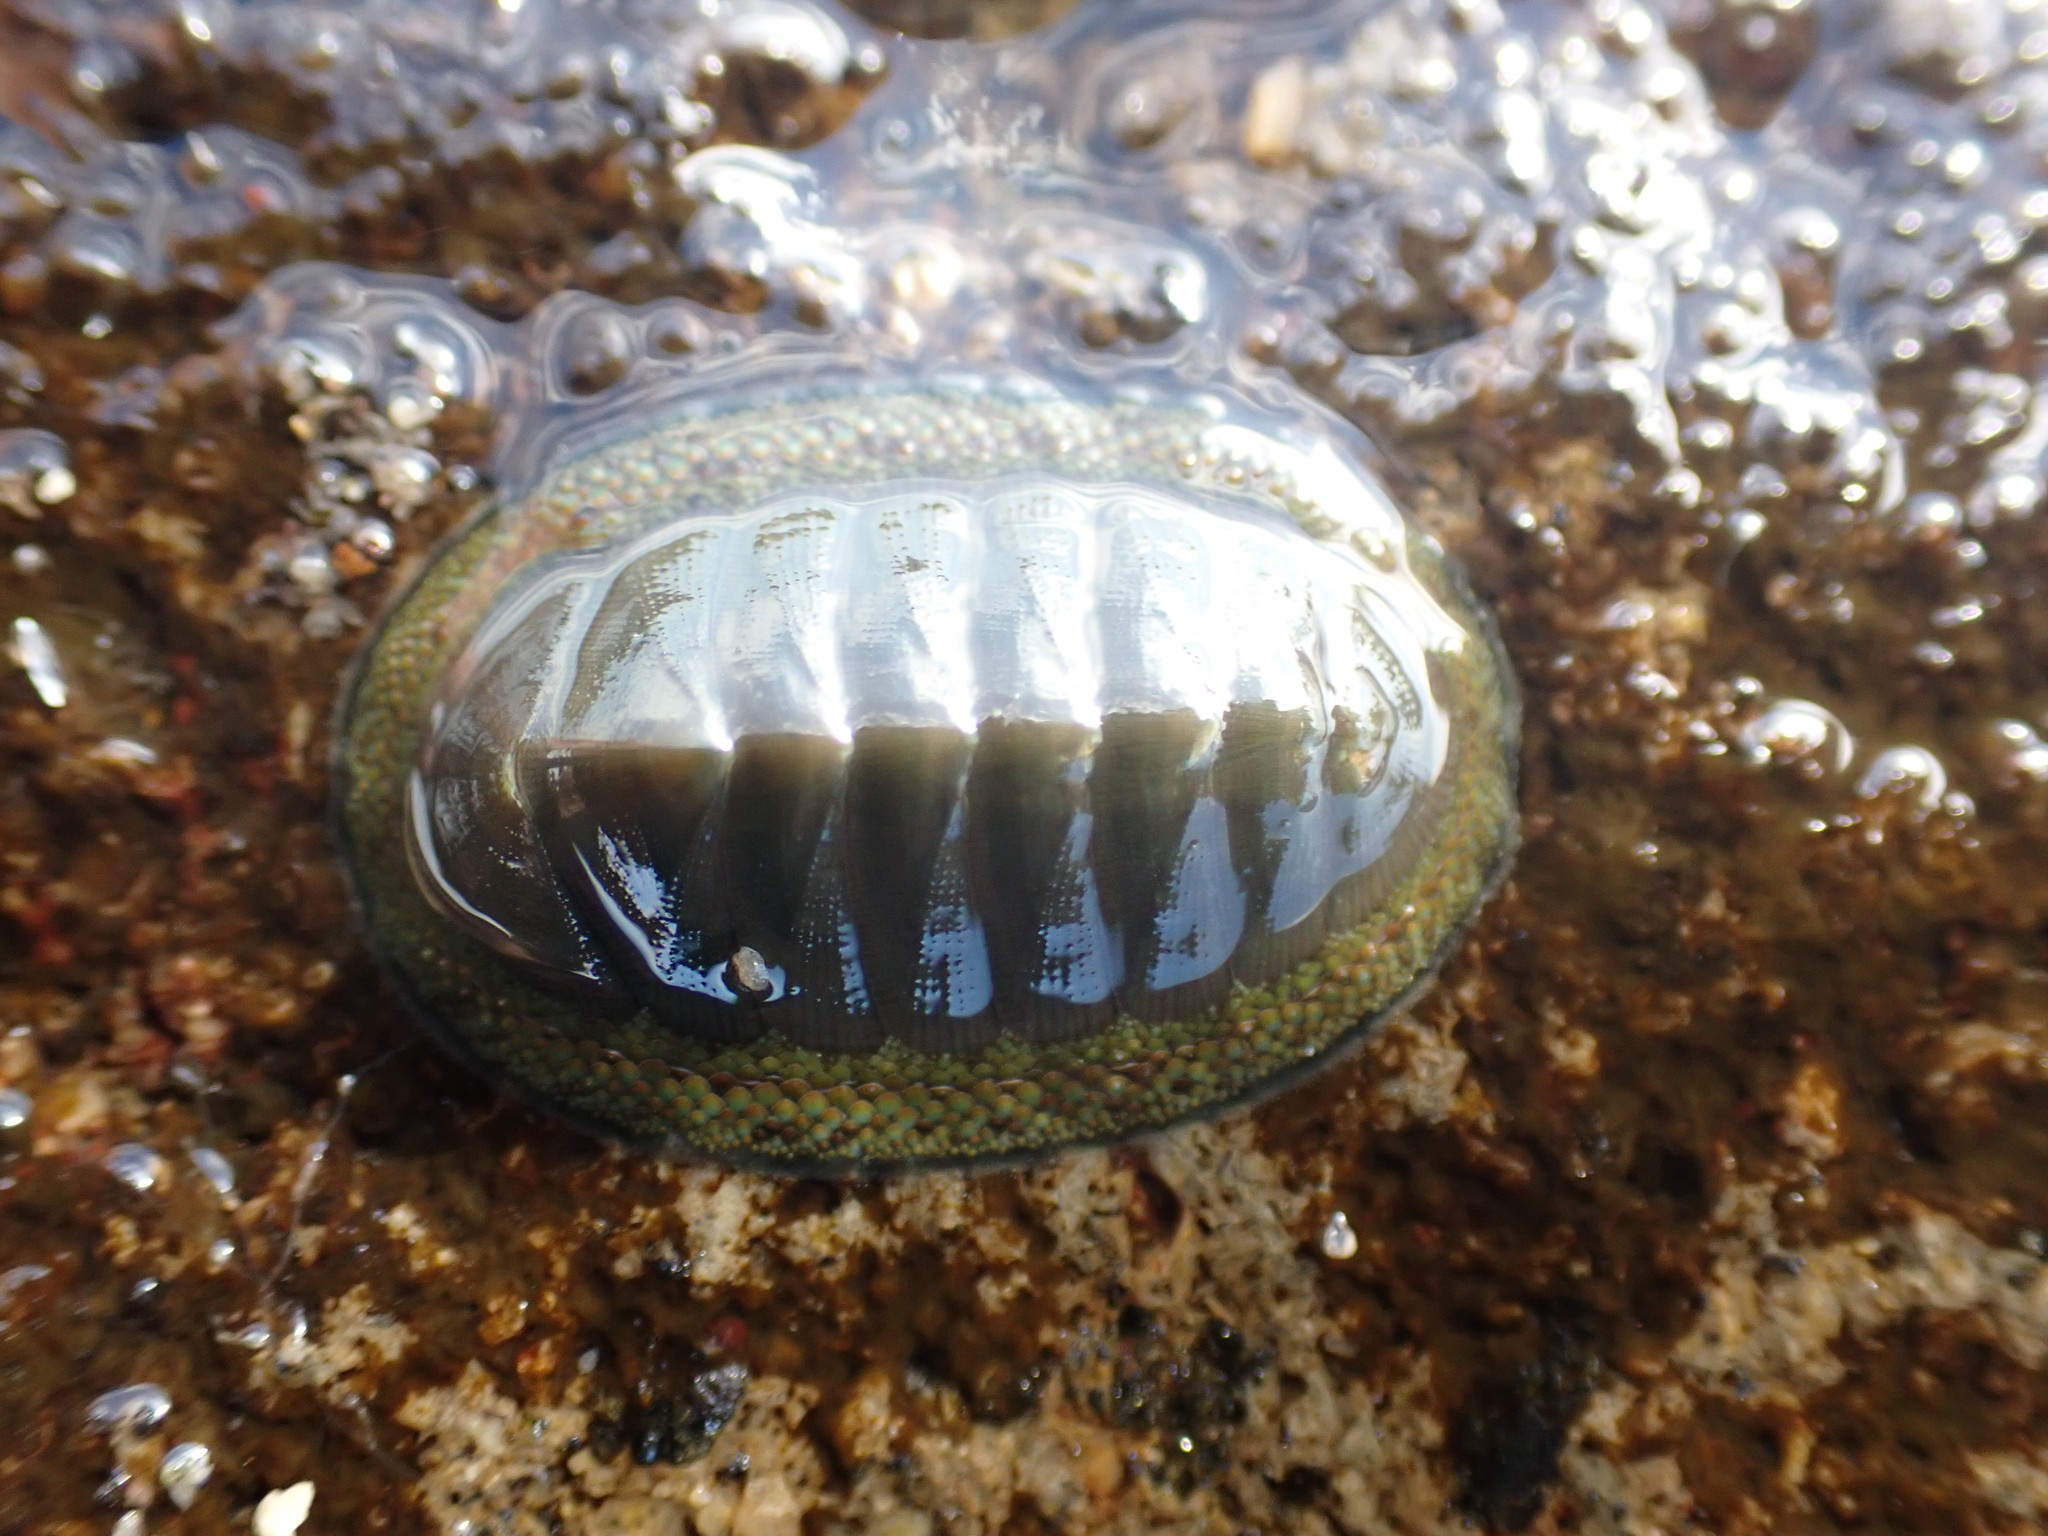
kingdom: Animalia
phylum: Mollusca
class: Polyplacophora
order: Chitonida
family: Chitonidae
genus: Chiton
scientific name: Chiton glaucus
